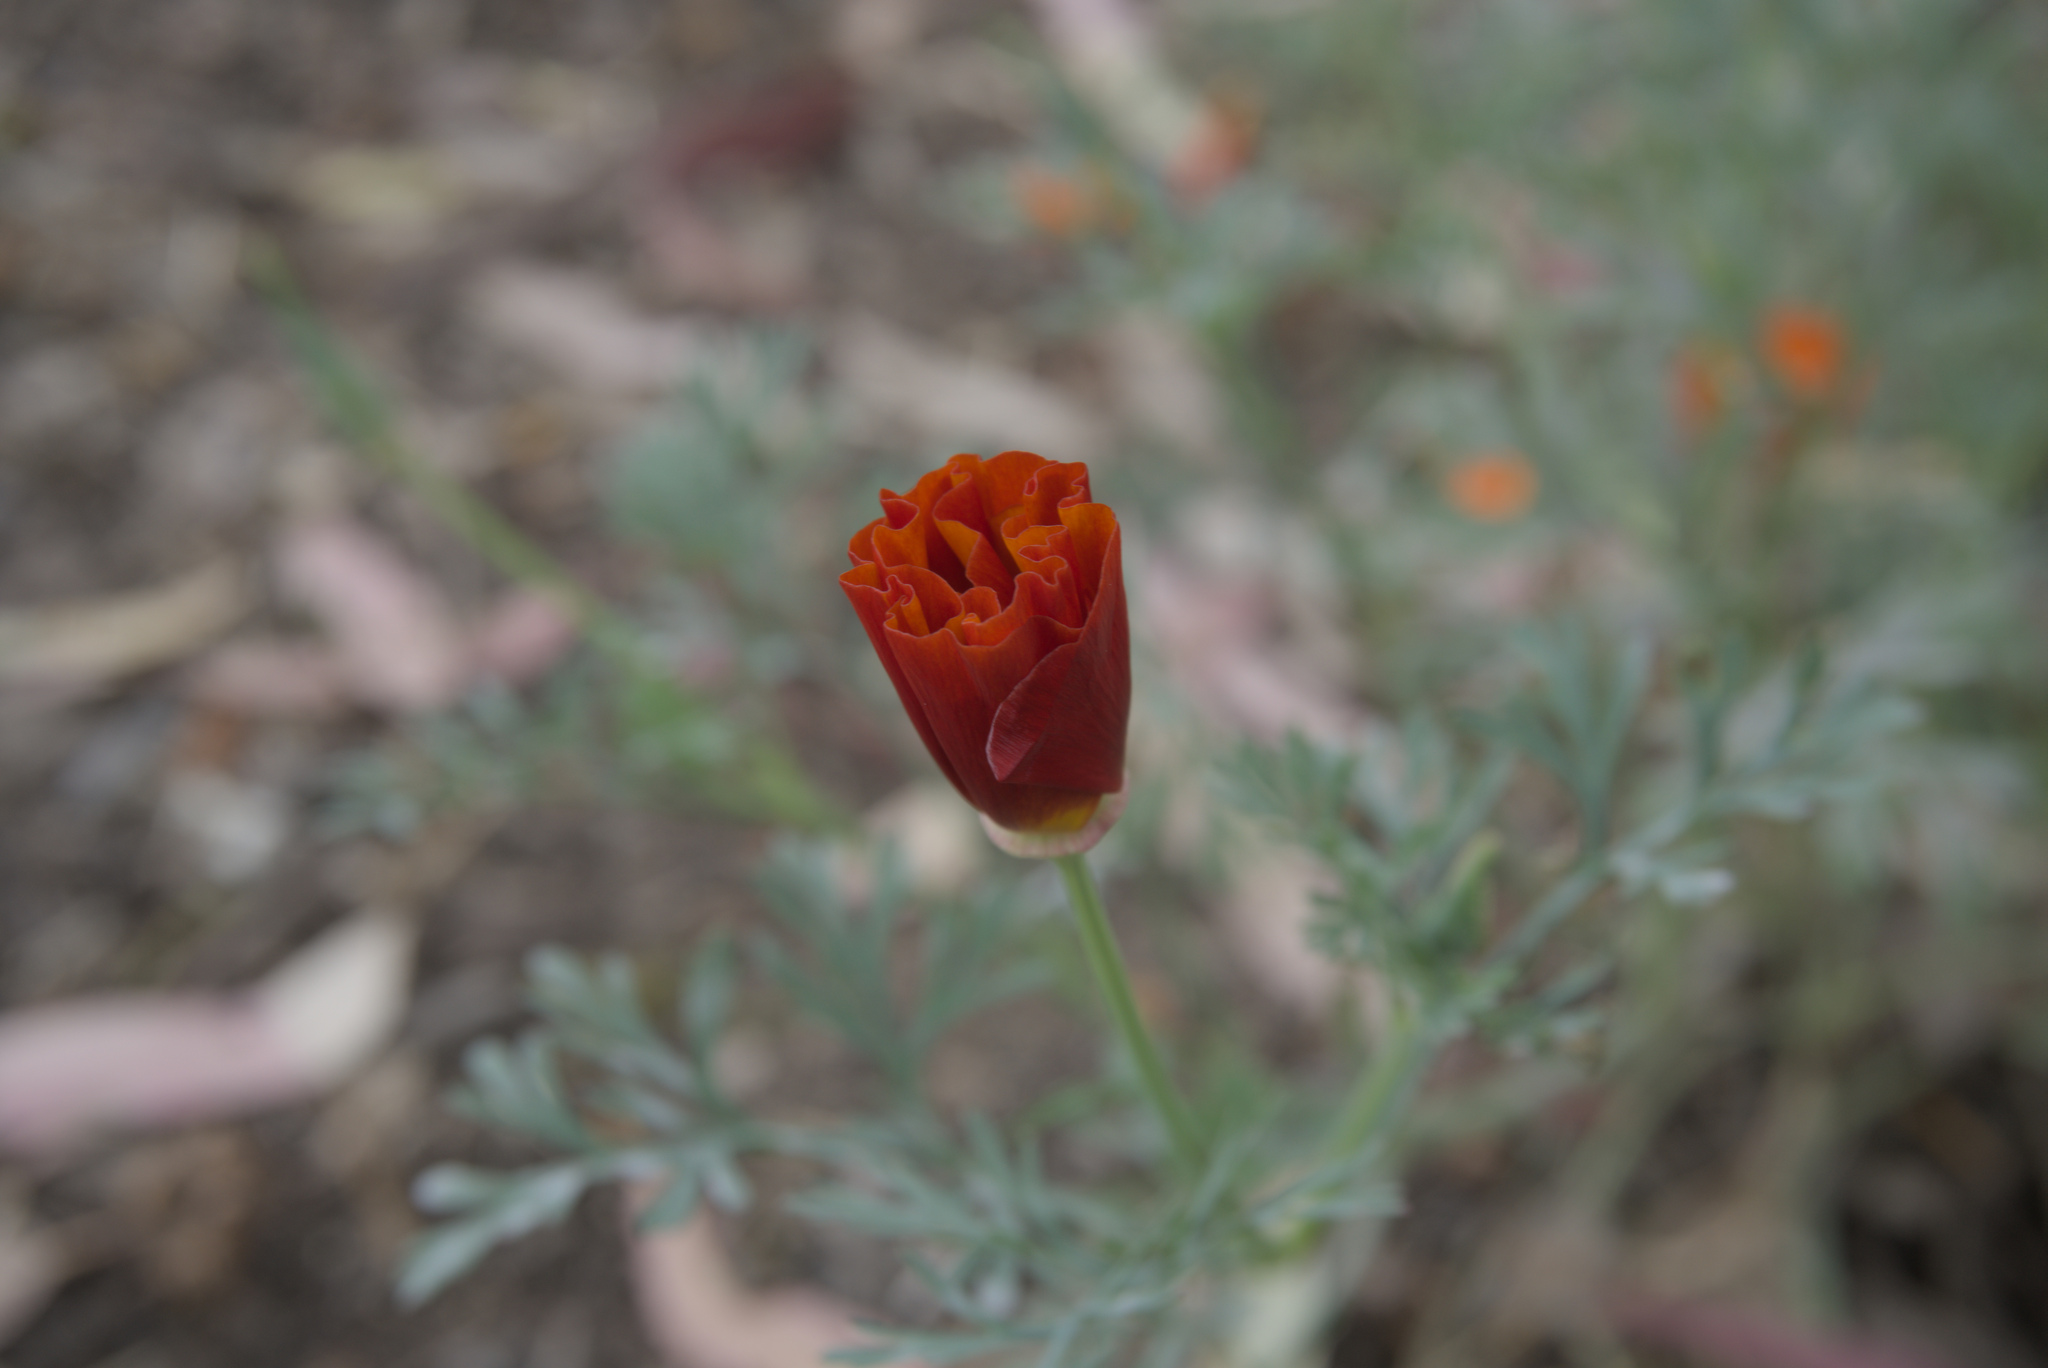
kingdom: Plantae
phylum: Tracheophyta
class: Magnoliopsida
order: Ranunculales
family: Papaveraceae
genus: Eschscholzia
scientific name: Eschscholzia californica
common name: California poppy
